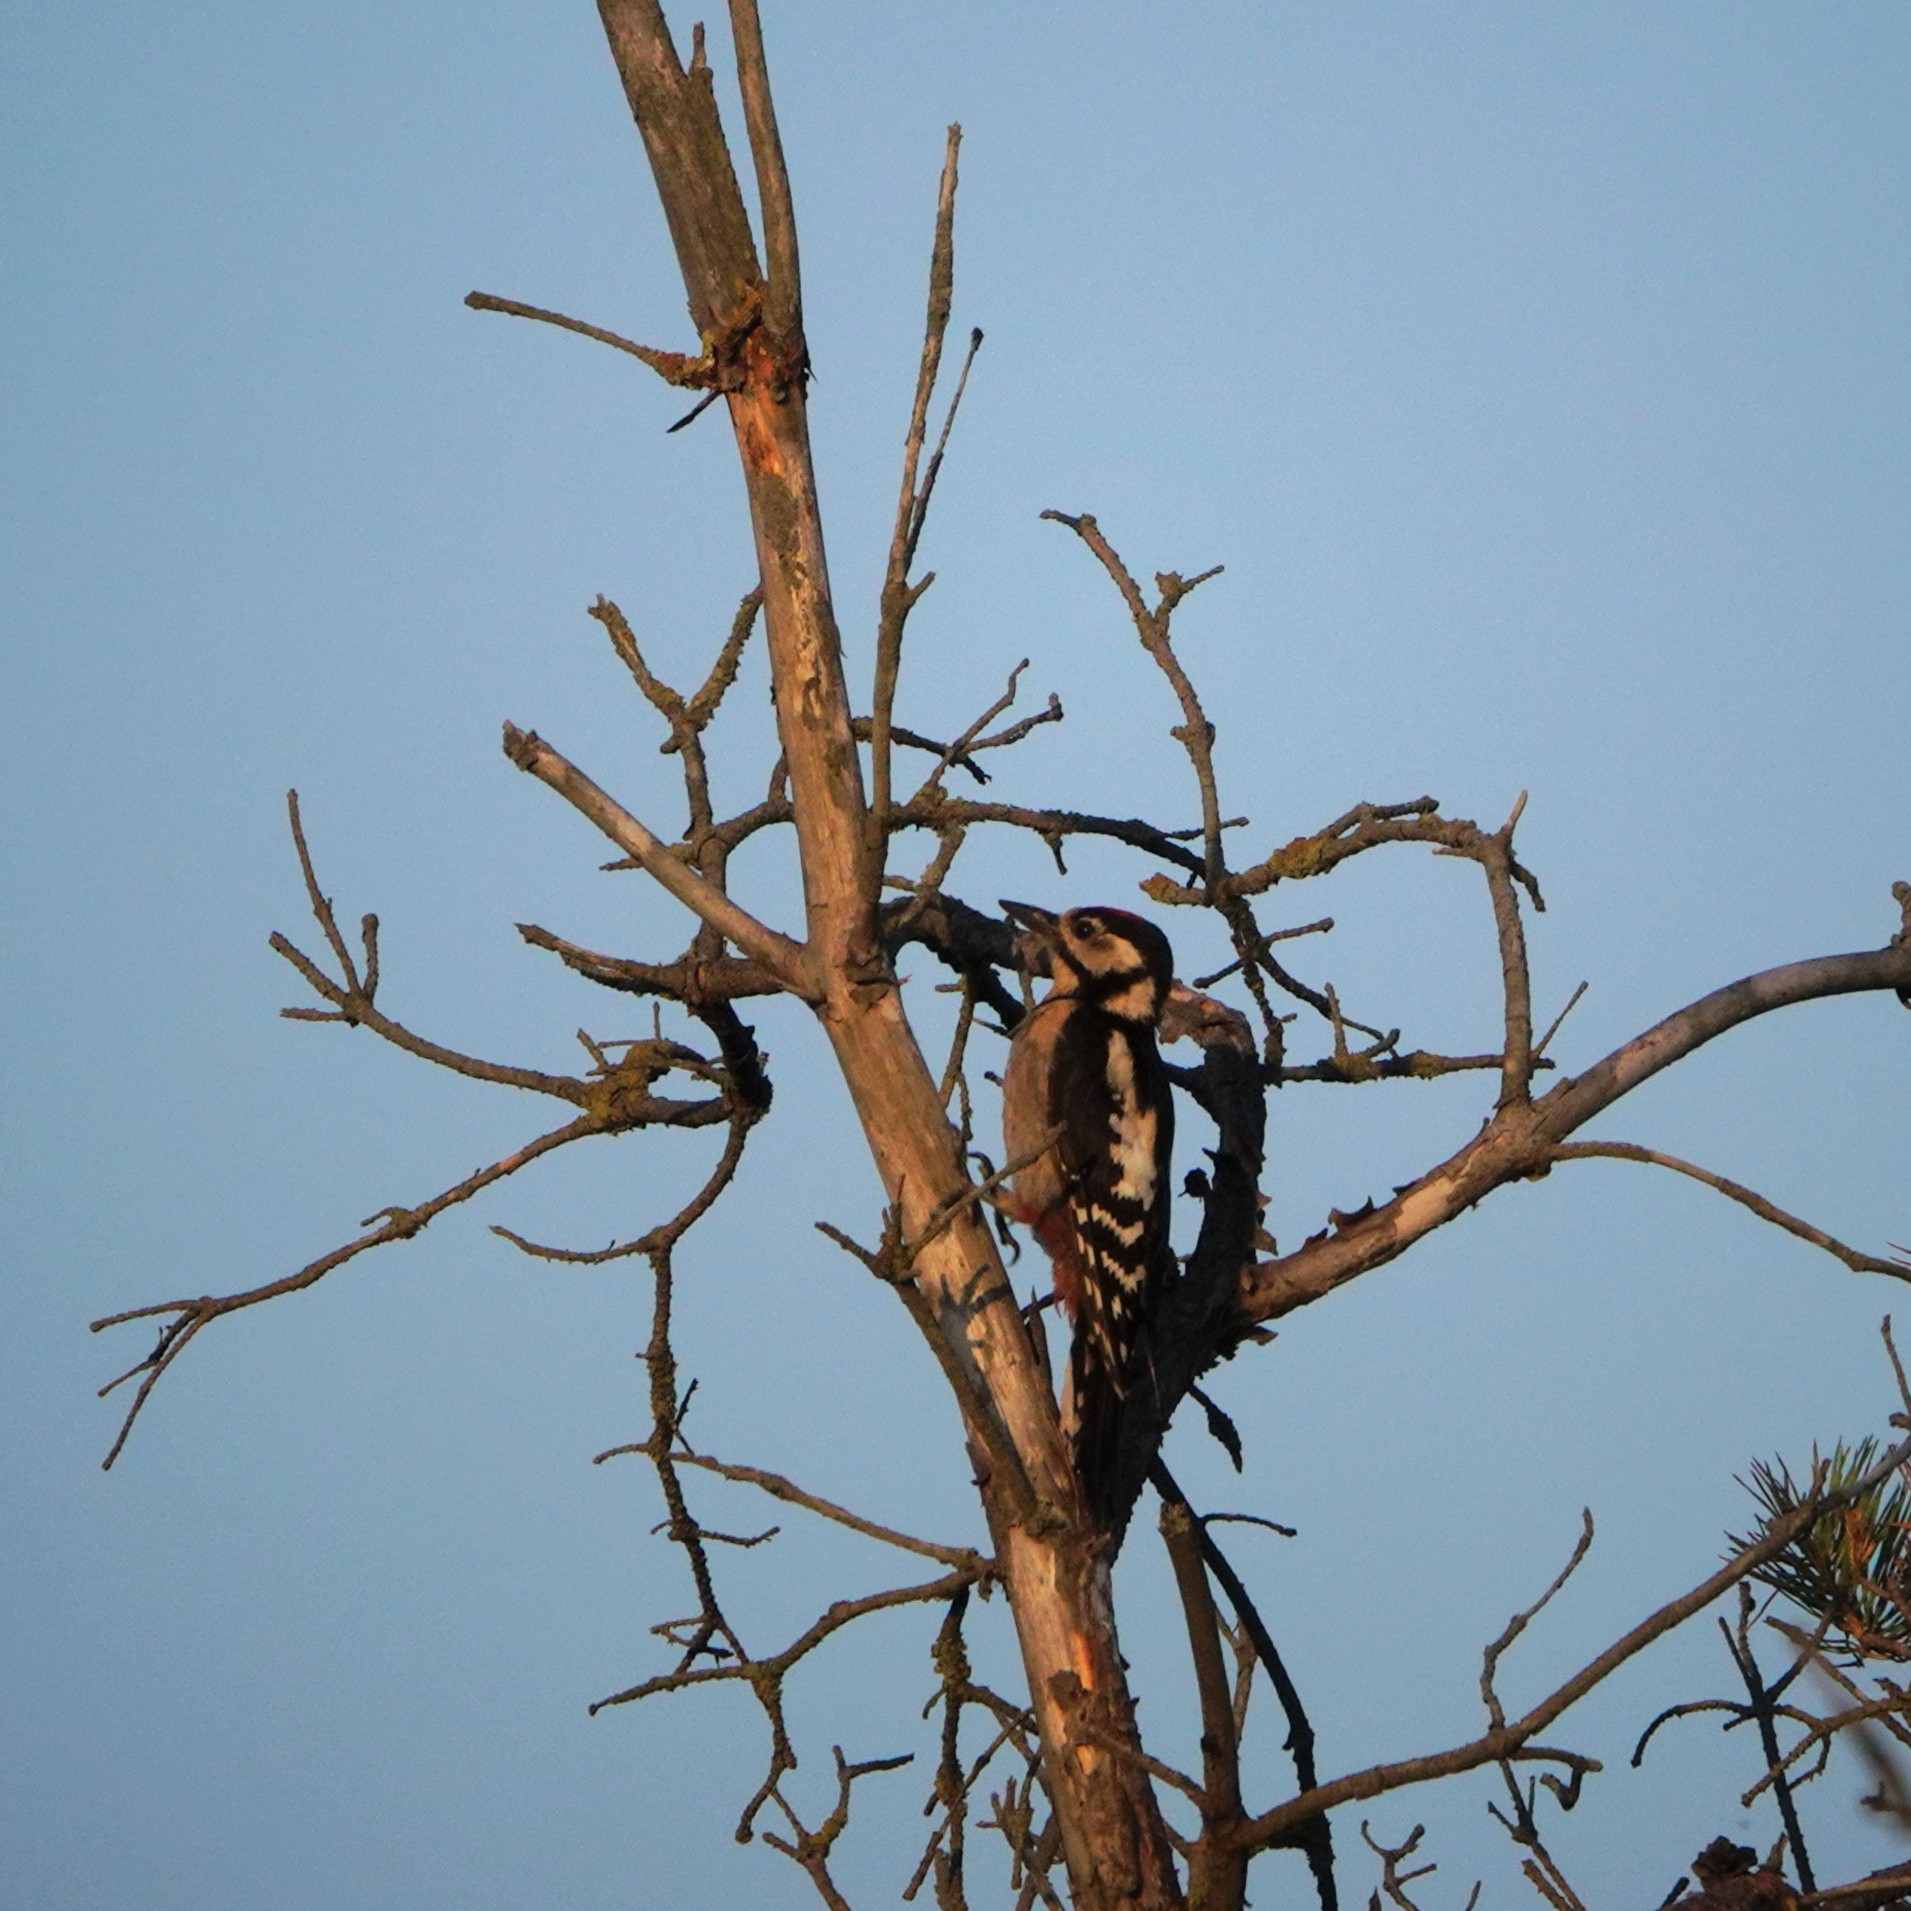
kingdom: Animalia
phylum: Chordata
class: Aves
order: Piciformes
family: Picidae
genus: Dendrocopos
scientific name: Dendrocopos major
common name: Great spotted woodpecker
